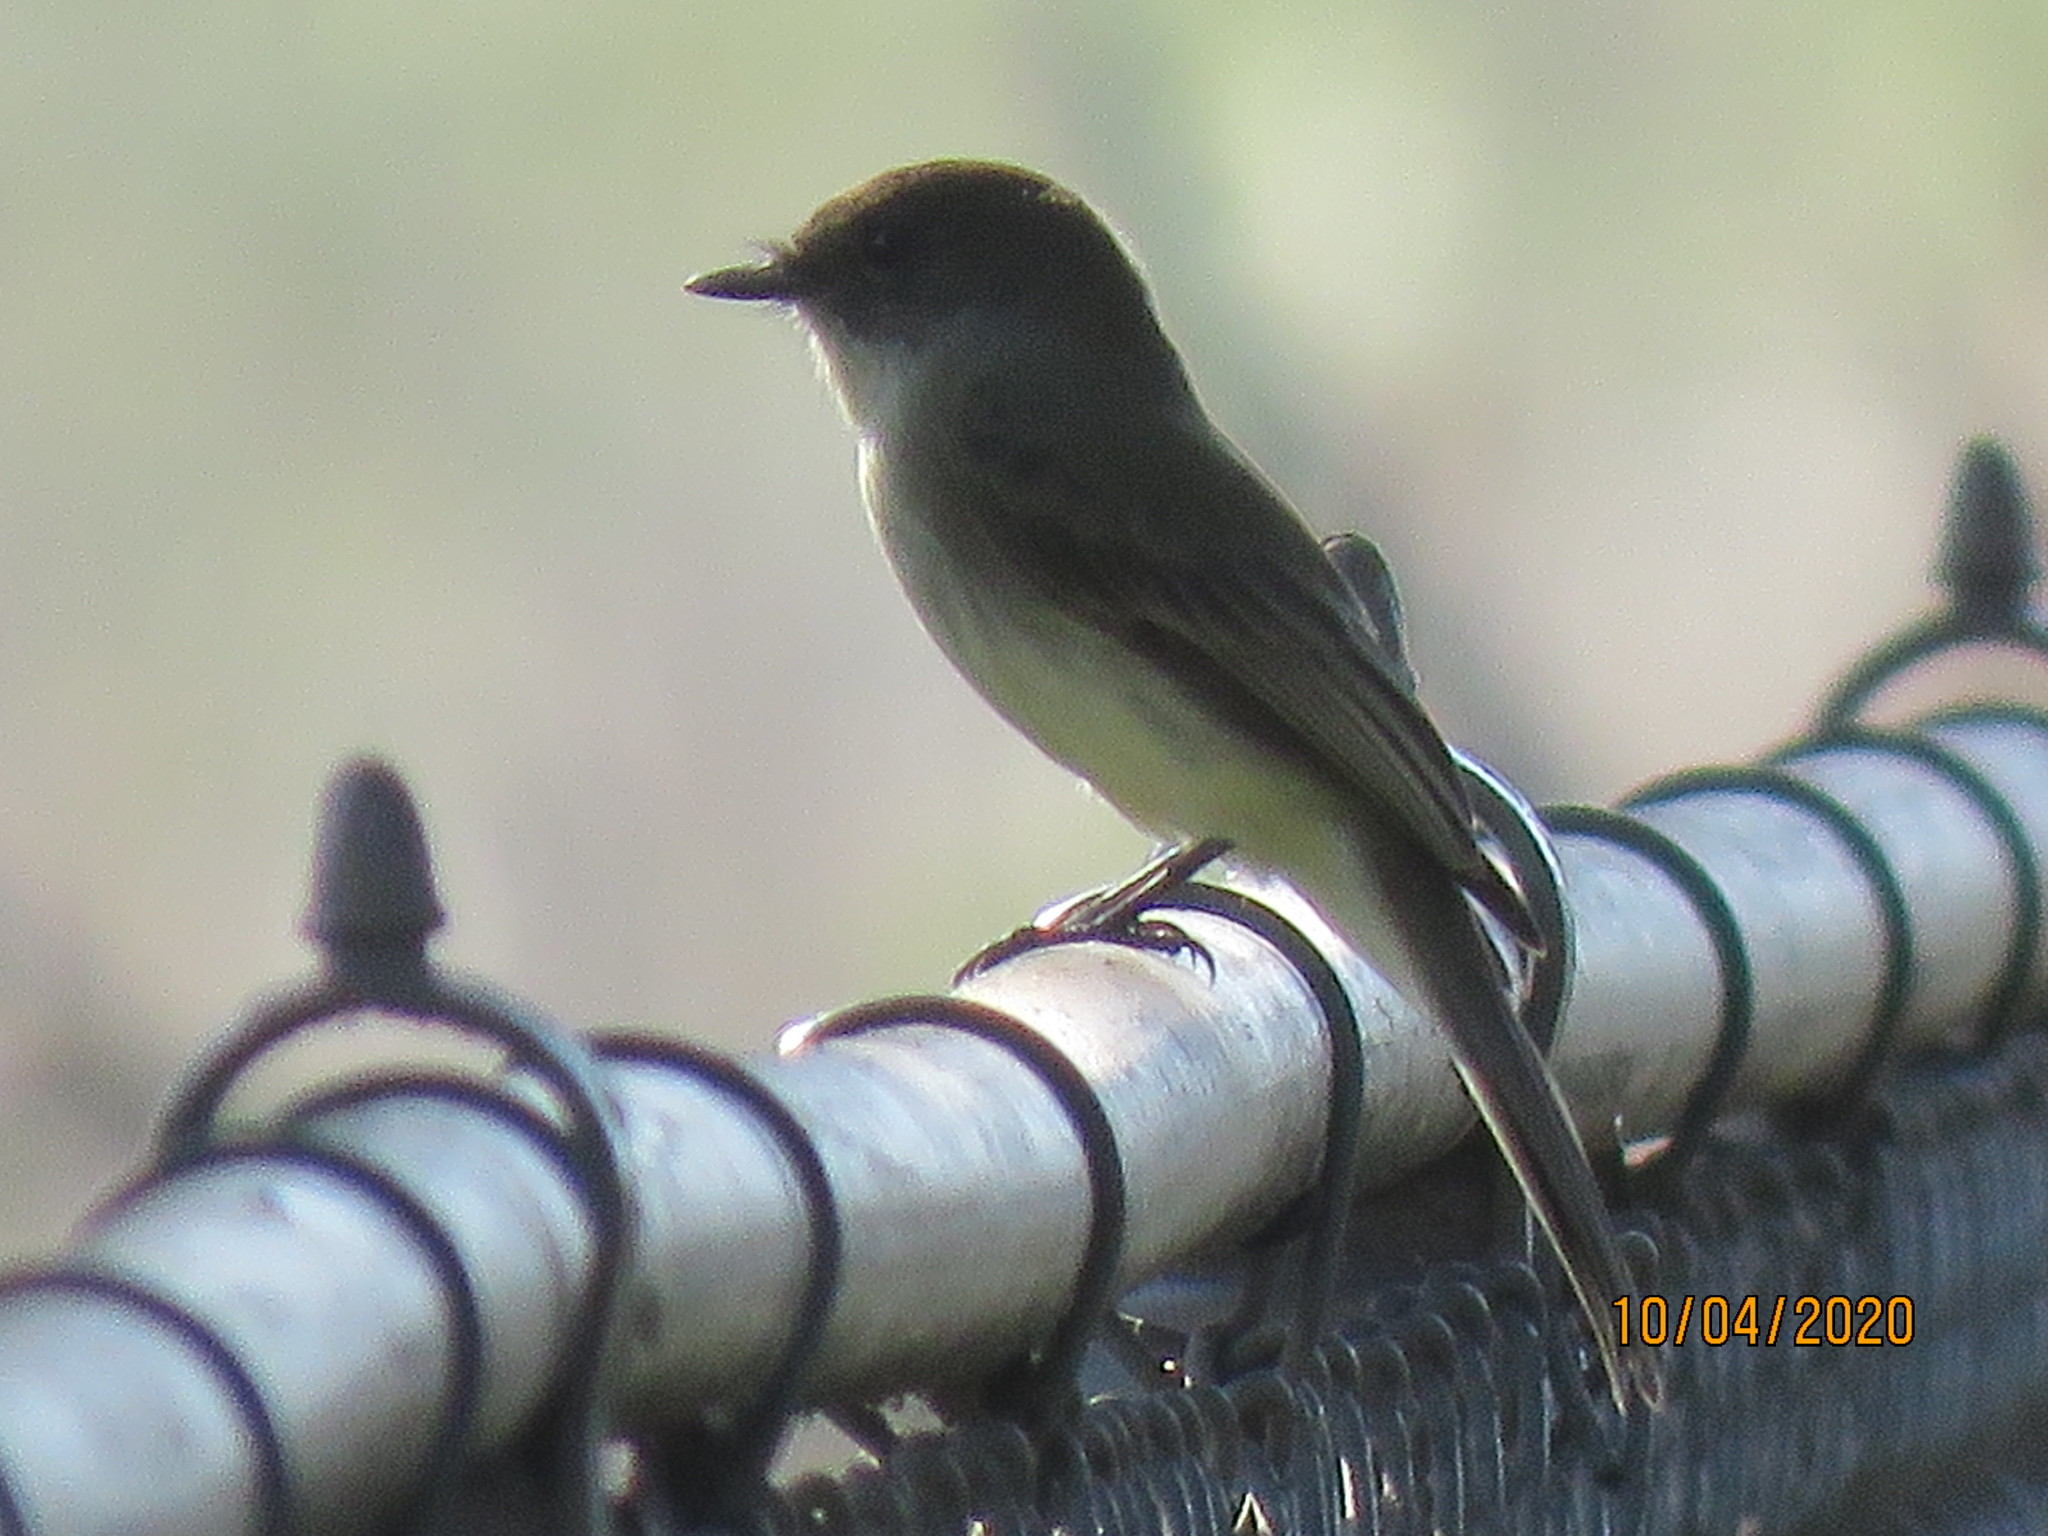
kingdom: Animalia
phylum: Chordata
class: Aves
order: Passeriformes
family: Tyrannidae
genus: Sayornis
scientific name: Sayornis phoebe
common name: Eastern phoebe
